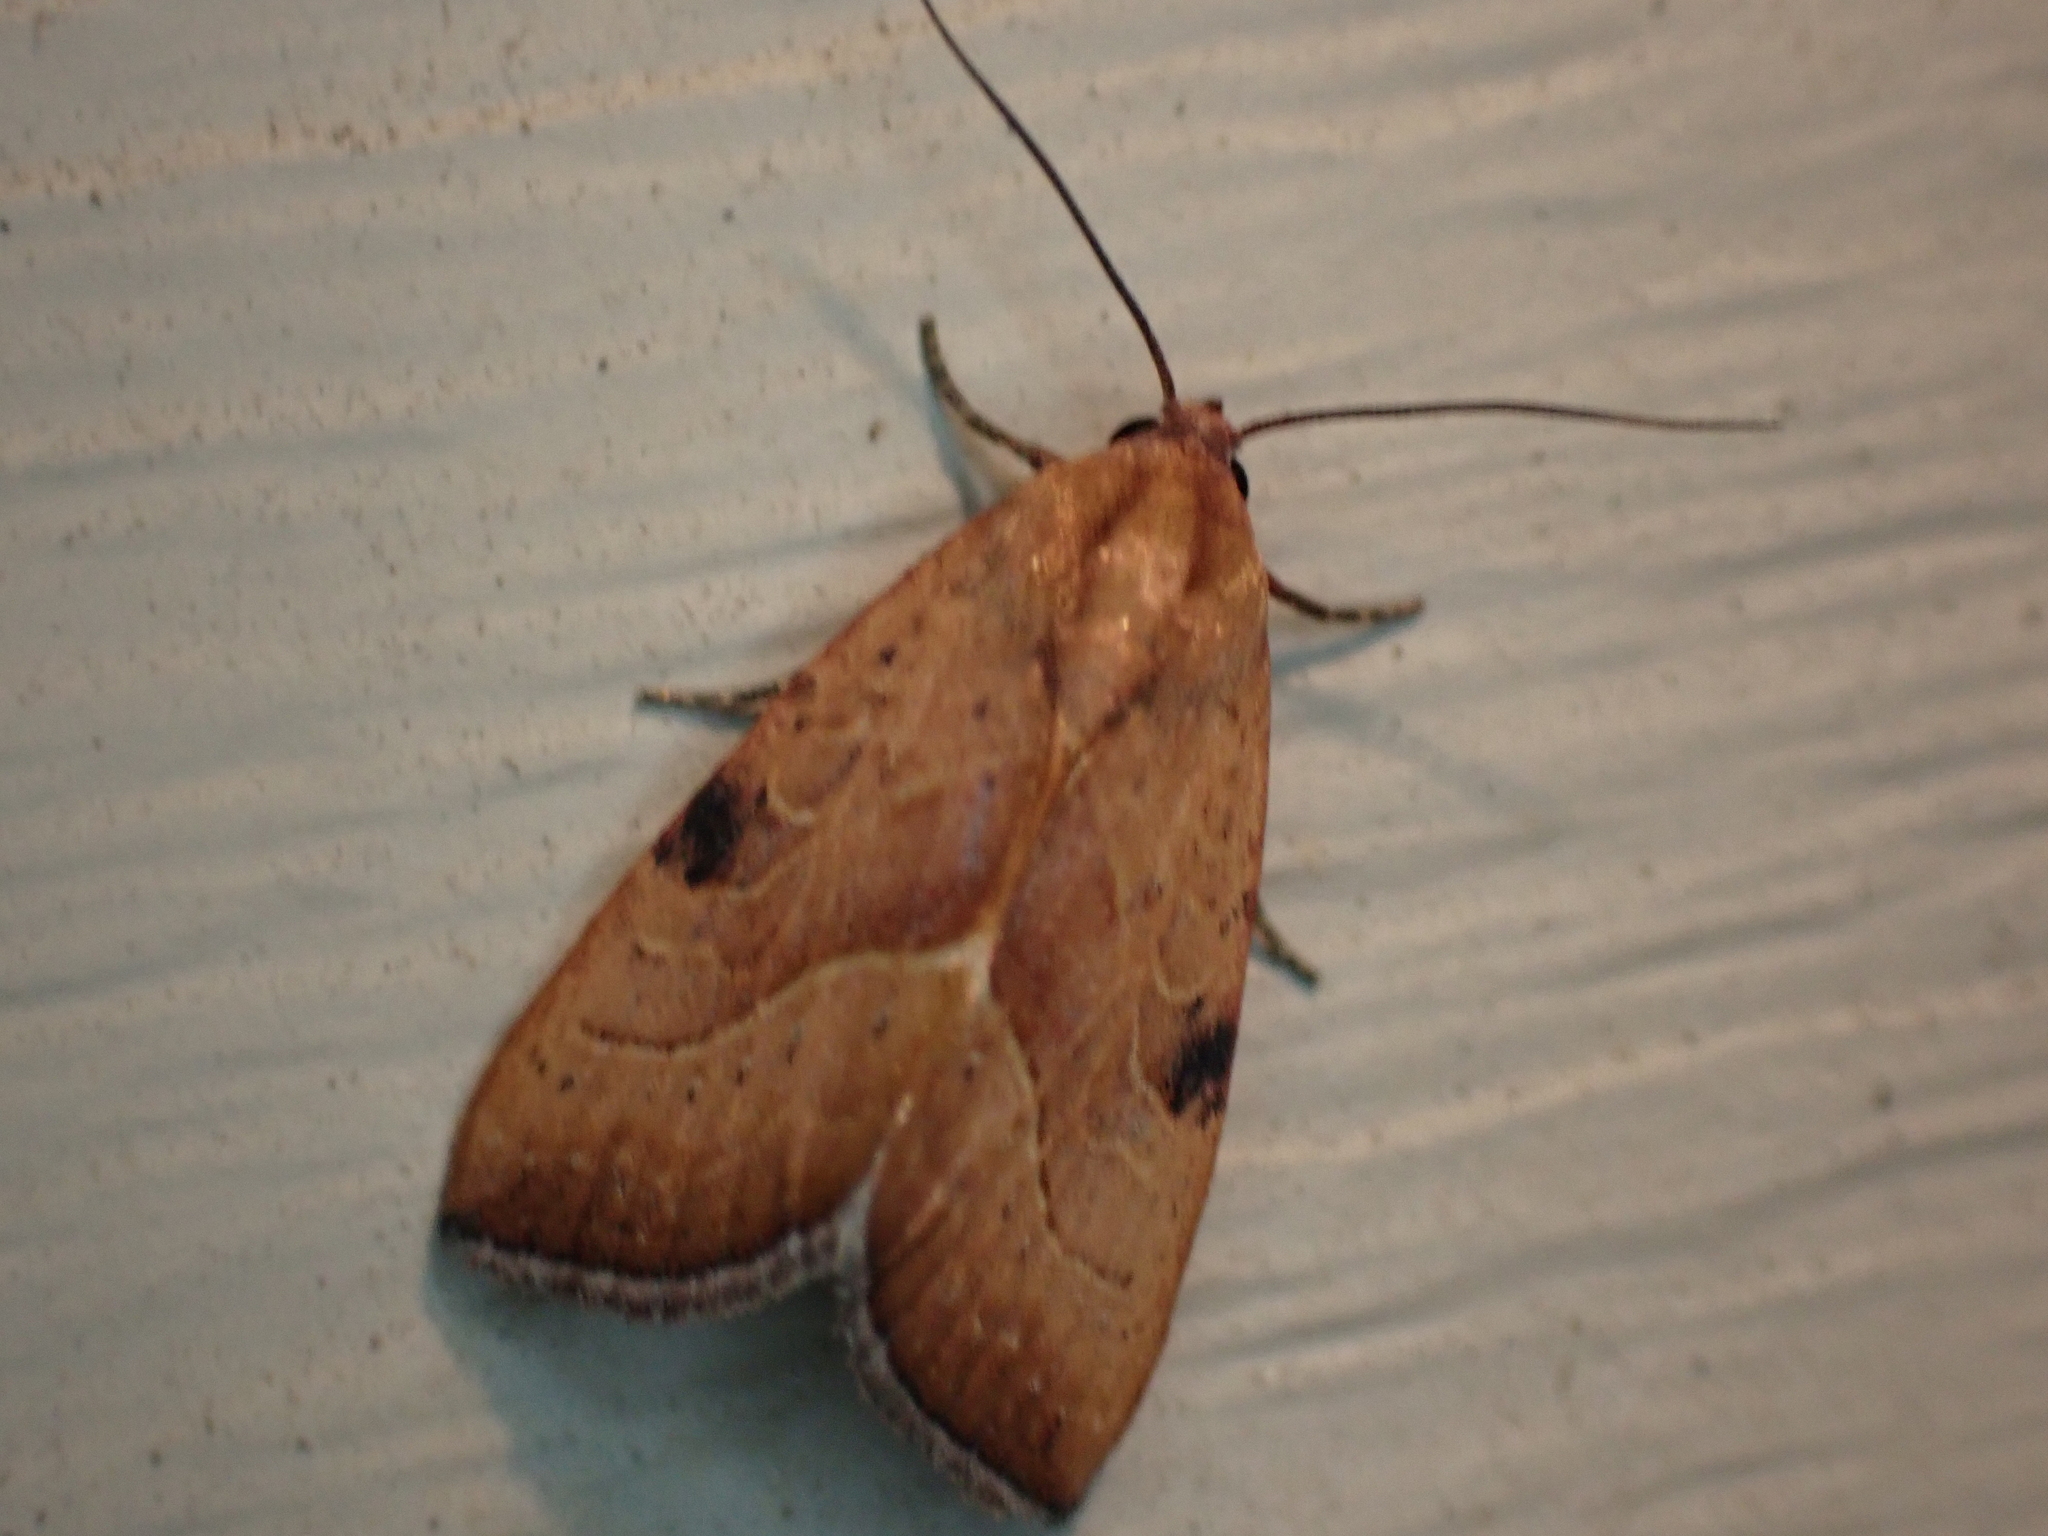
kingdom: Animalia
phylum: Arthropoda
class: Insecta
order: Lepidoptera
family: Noctuidae
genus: Galgula
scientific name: Galgula partita
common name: Wedgeling
